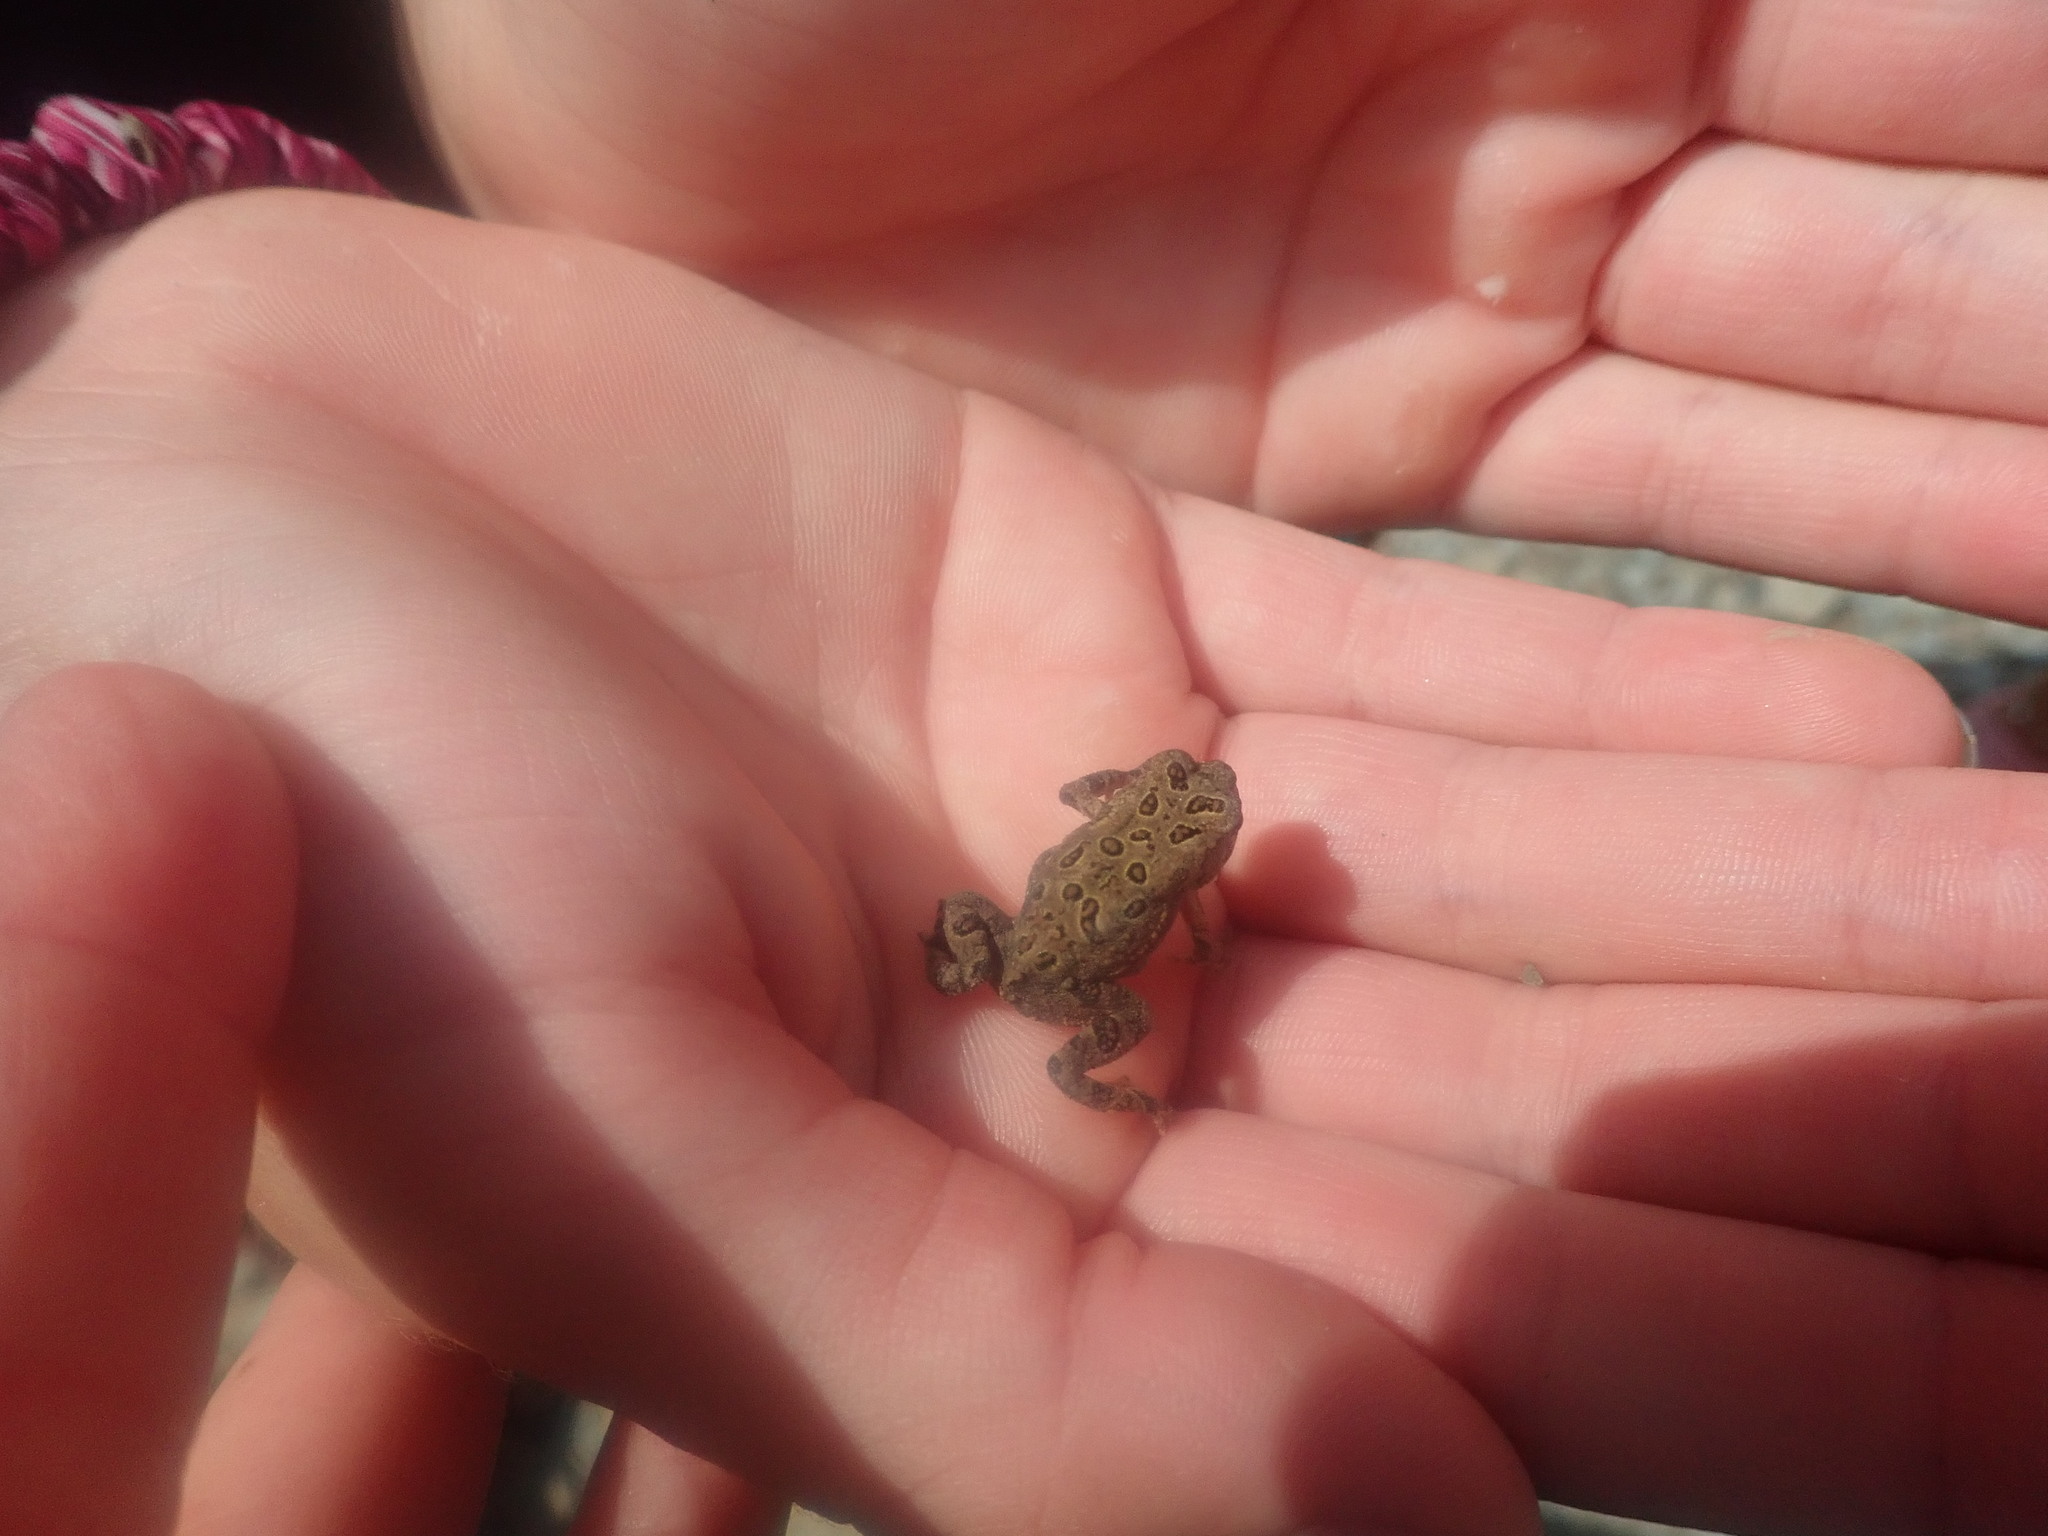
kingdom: Animalia
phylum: Chordata
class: Amphibia
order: Anura
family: Bufonidae
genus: Anaxyrus
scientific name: Anaxyrus americanus
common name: American toad
